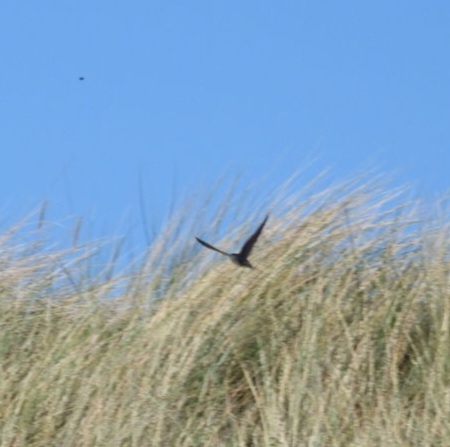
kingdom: Animalia
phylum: Chordata
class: Aves
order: Passeriformes
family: Hirundinidae
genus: Hirundo
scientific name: Hirundo rustica
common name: Barn swallow
